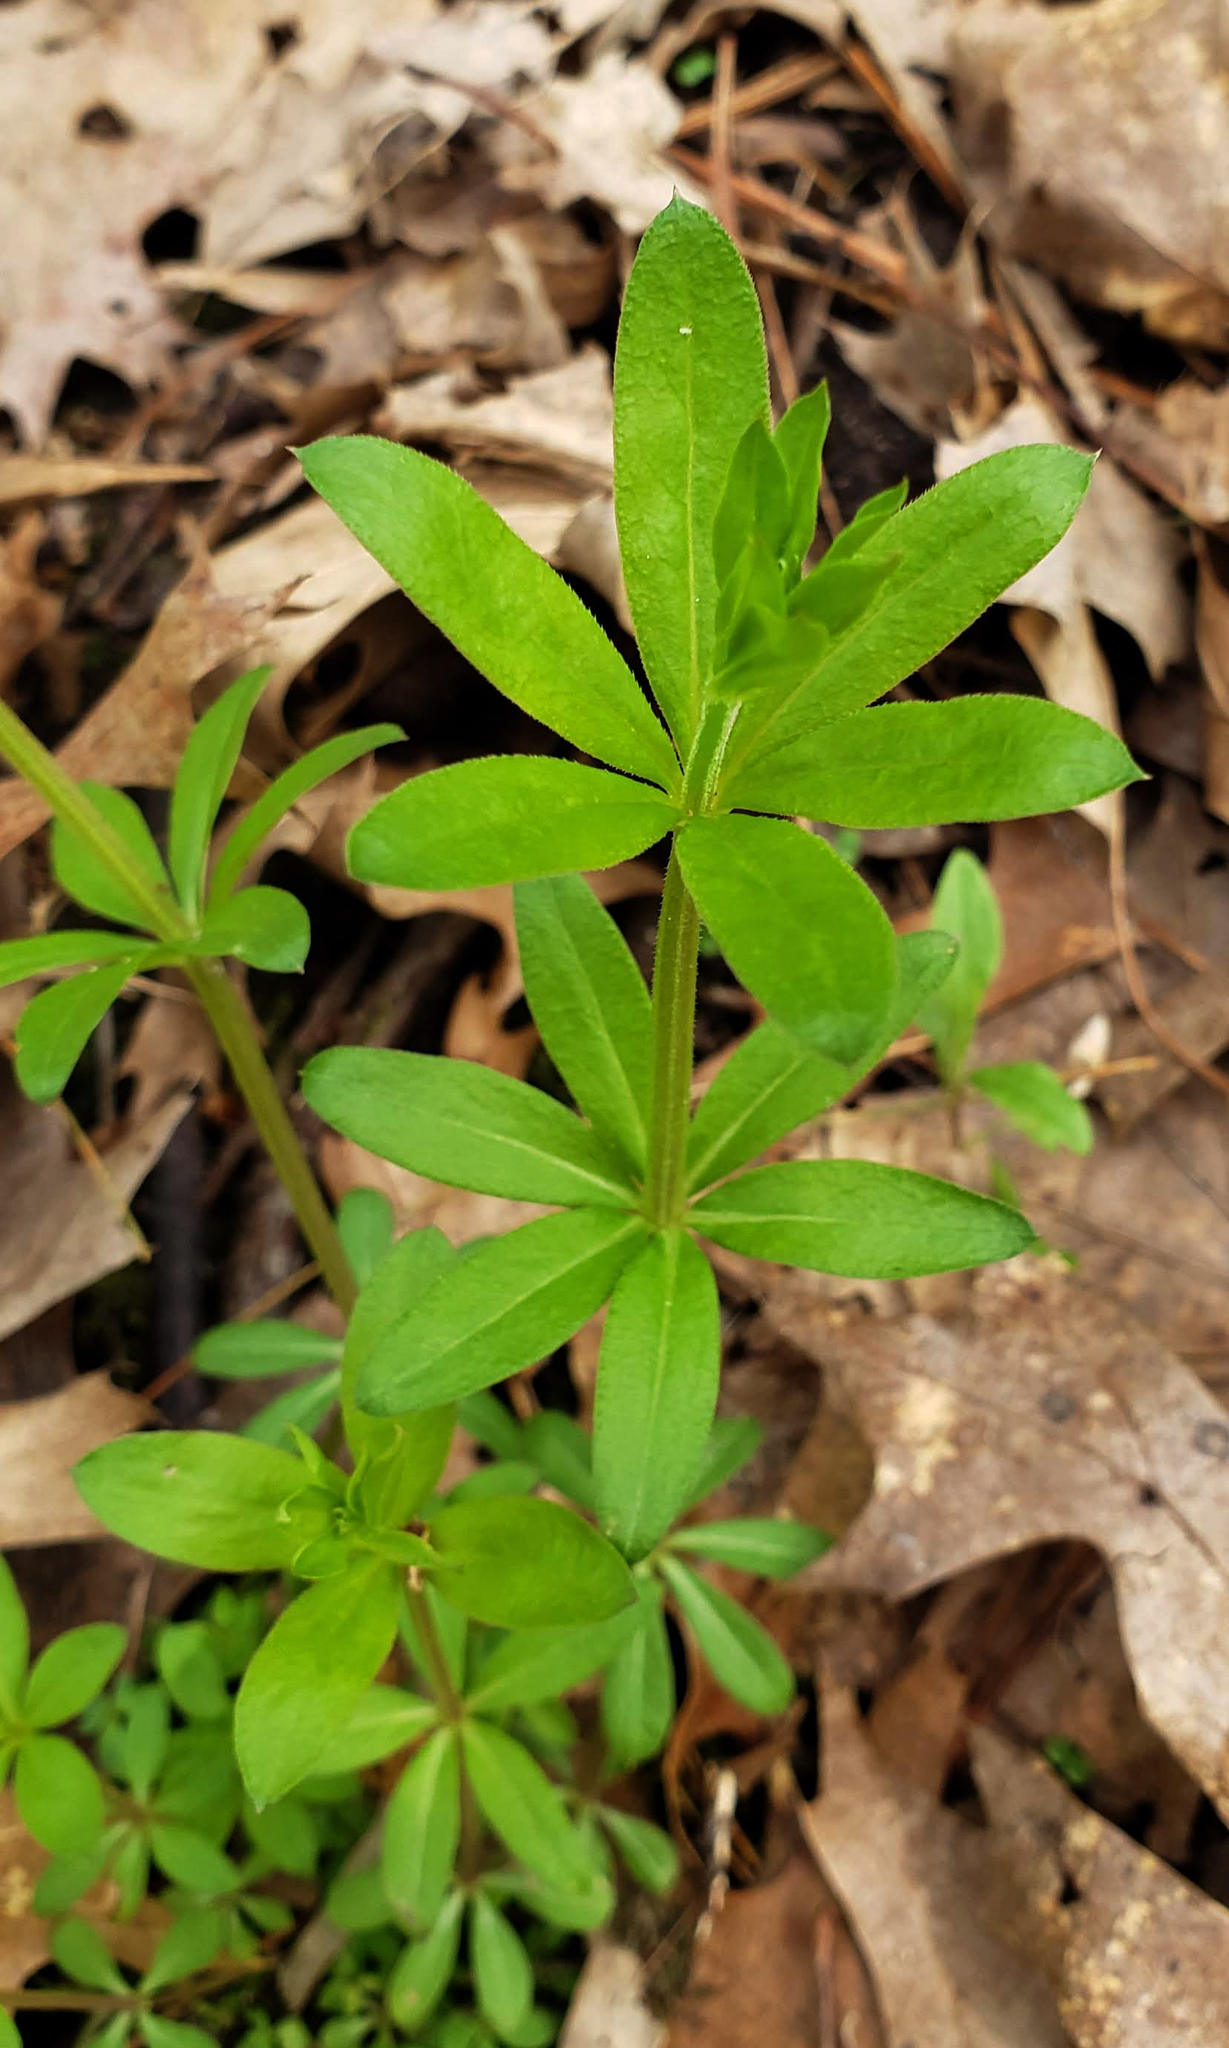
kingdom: Plantae
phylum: Tracheophyta
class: Magnoliopsida
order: Gentianales
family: Rubiaceae
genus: Galium
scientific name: Galium triflorum
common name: Fragrant bedstraw
